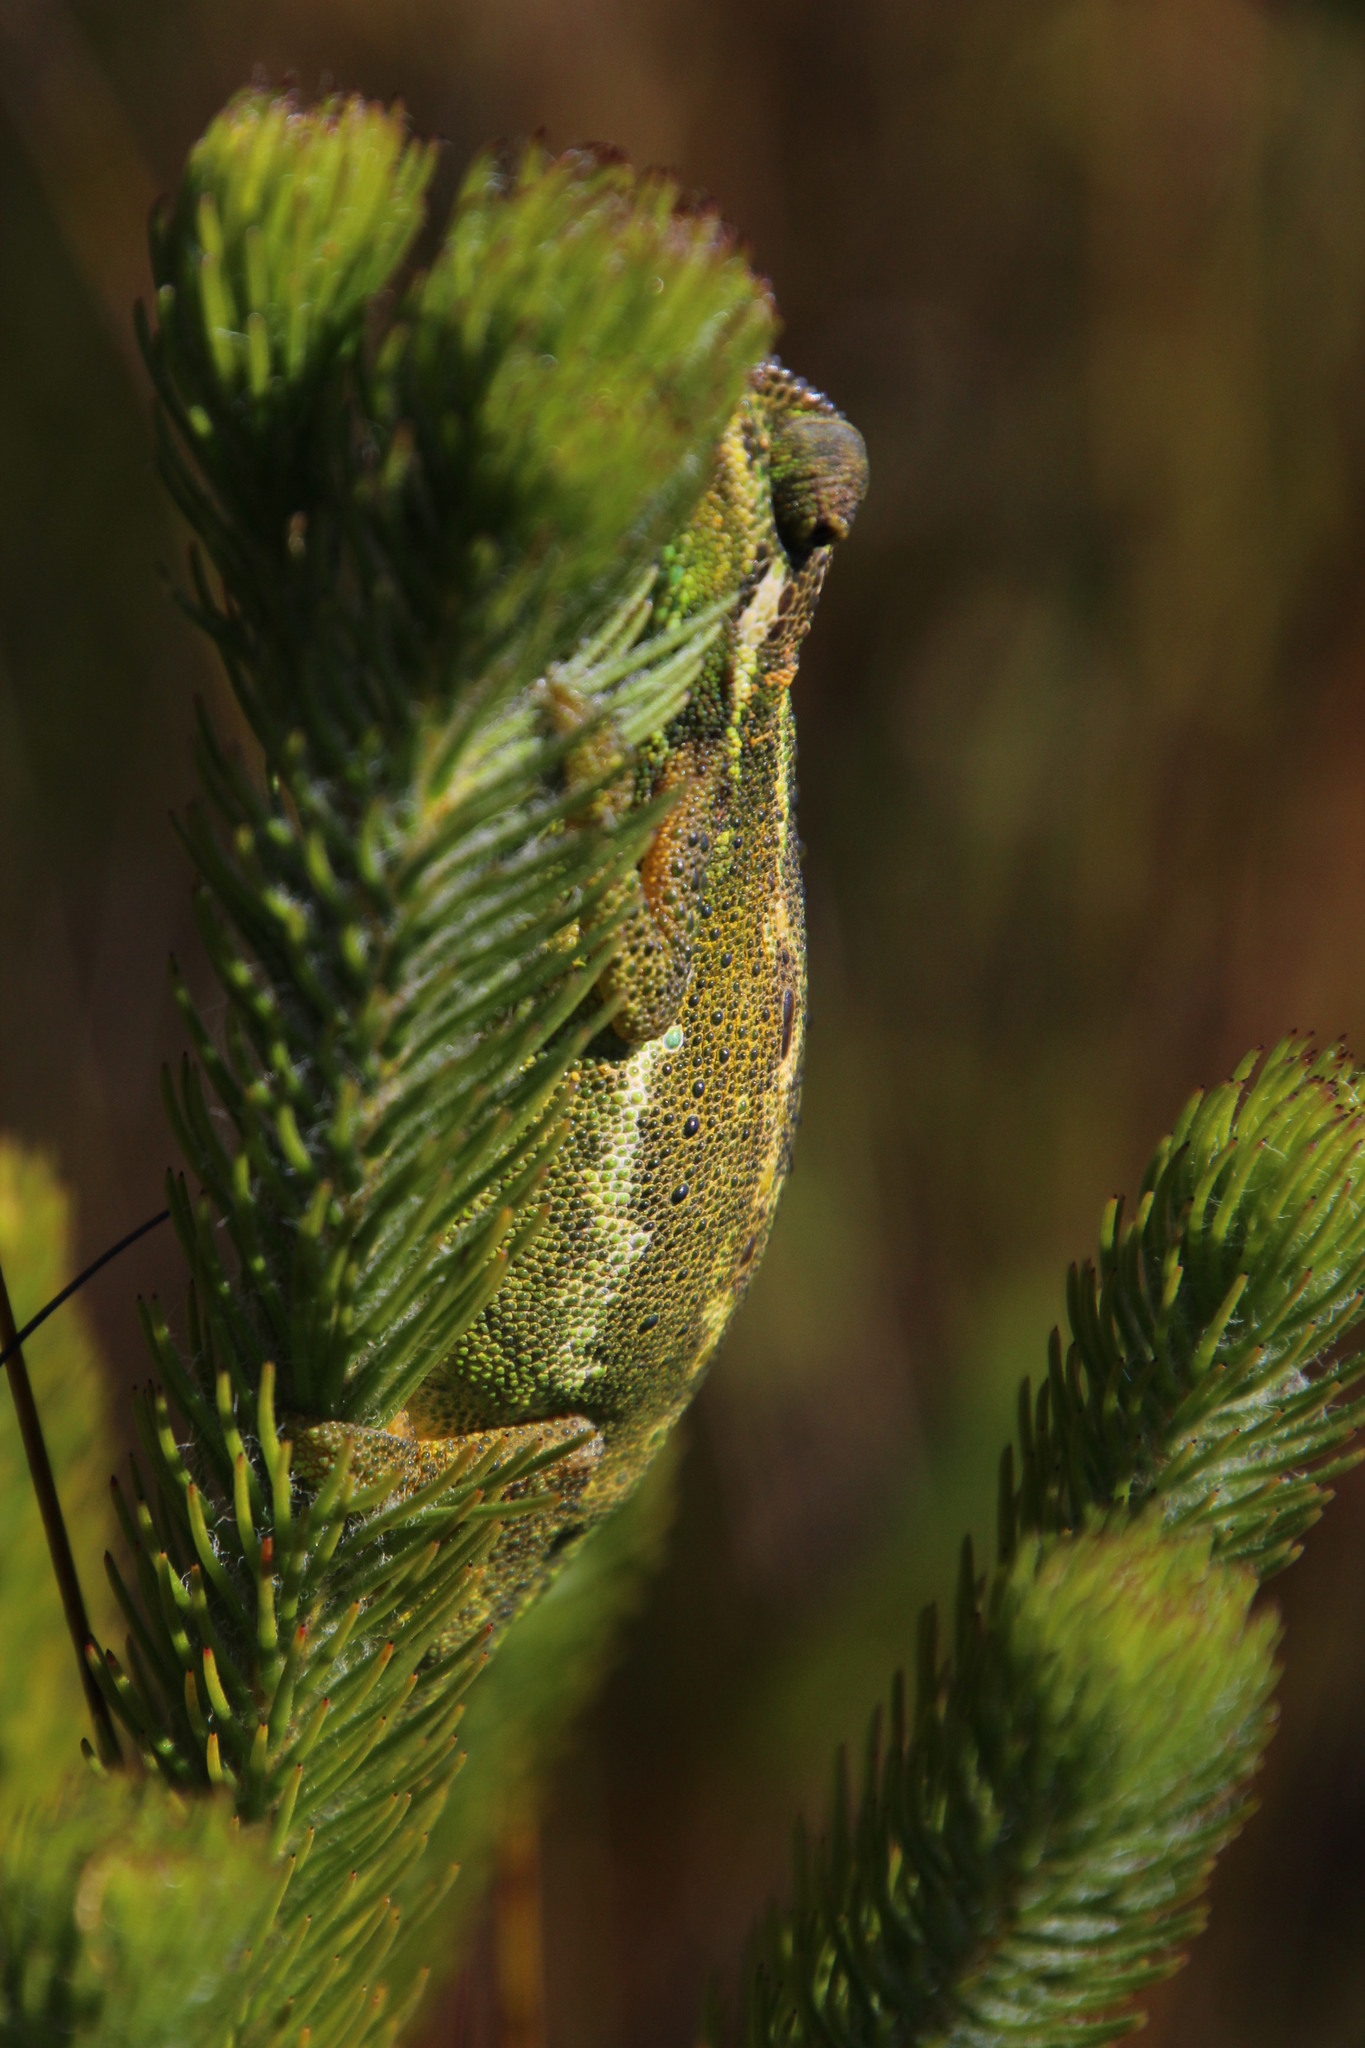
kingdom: Animalia
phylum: Chordata
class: Squamata
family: Chamaeleonidae
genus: Bradypodion
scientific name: Bradypodion pumilum
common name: Cape dwarf chameleon
